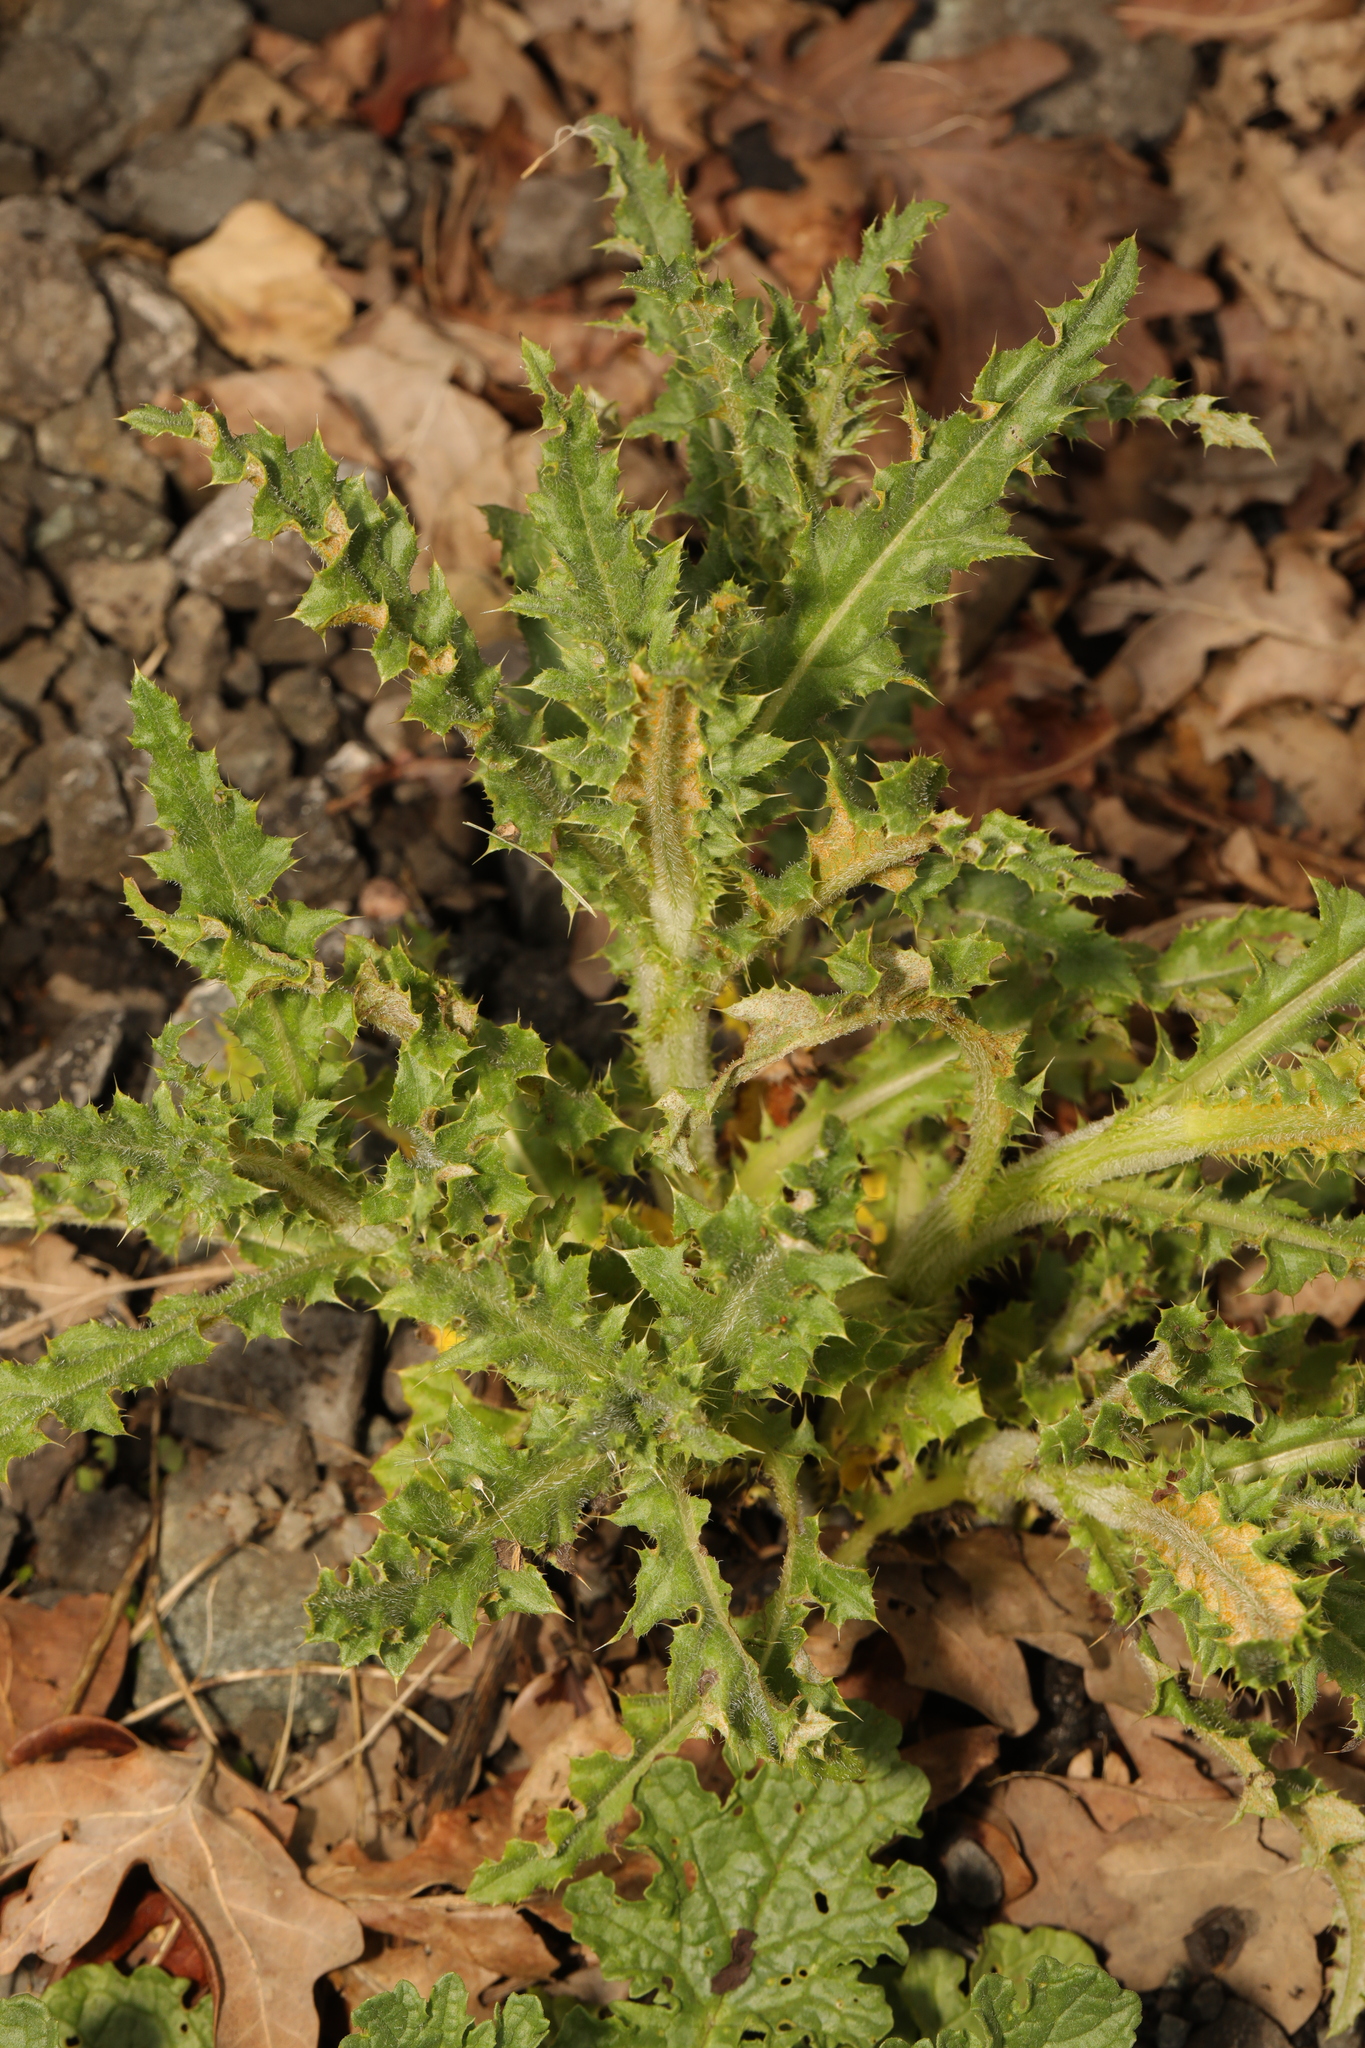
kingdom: Plantae
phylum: Tracheophyta
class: Magnoliopsida
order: Asterales
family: Asteraceae
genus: Cirsium
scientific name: Cirsium arvense
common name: Creeping thistle
